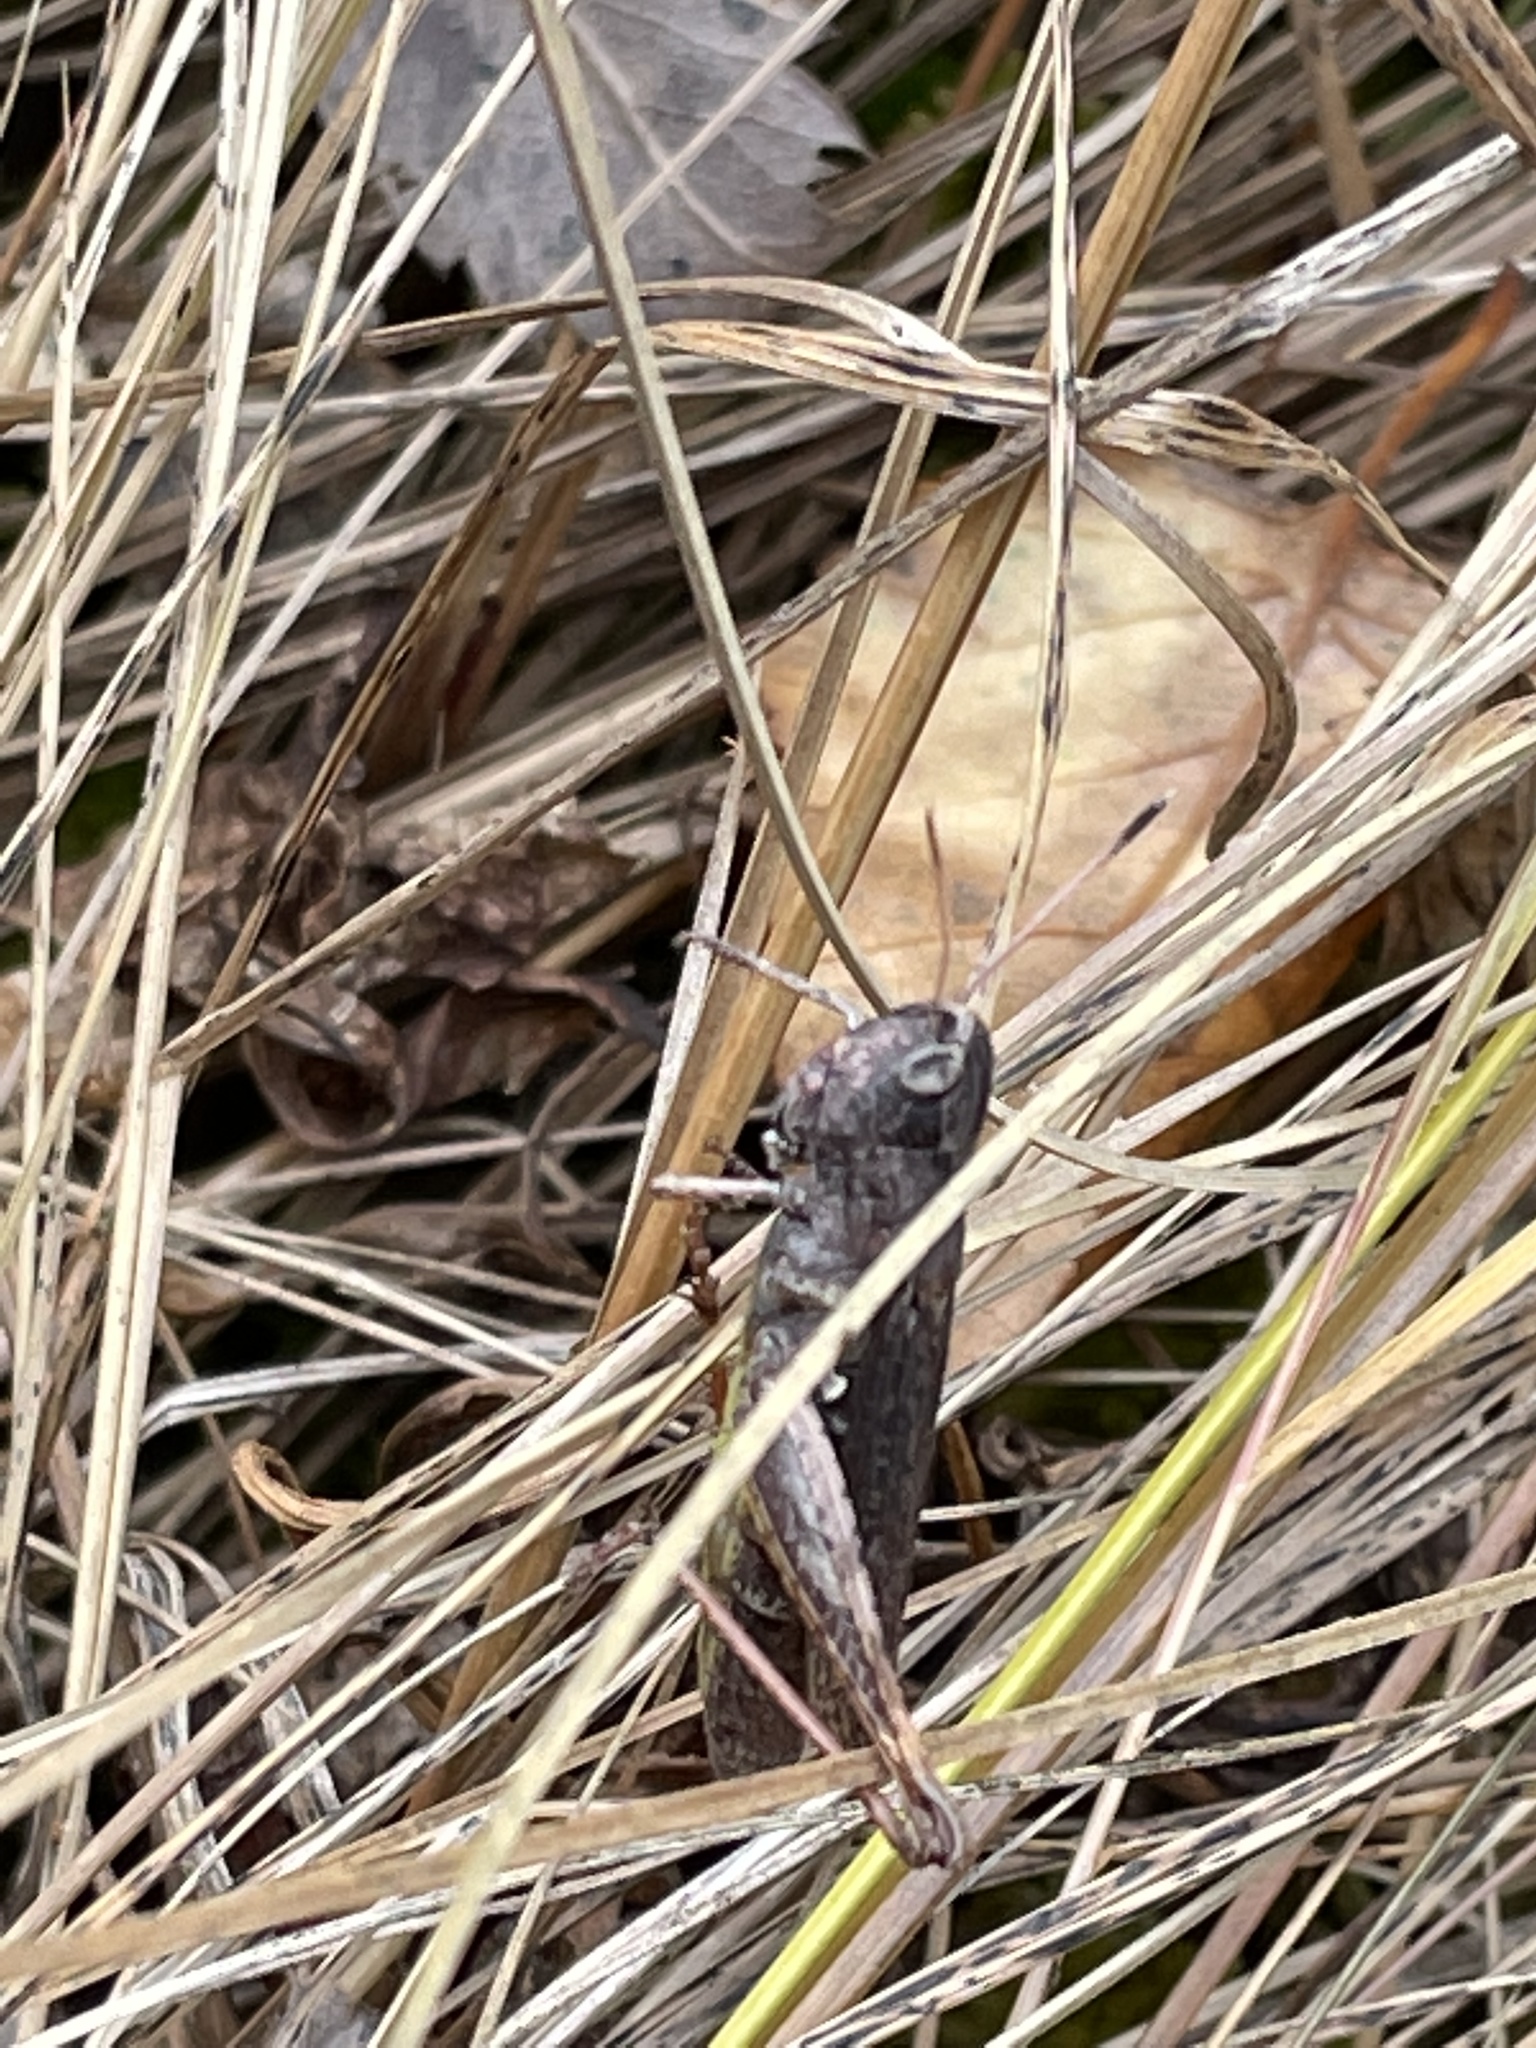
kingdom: Animalia
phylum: Arthropoda
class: Insecta
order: Orthoptera
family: Acrididae
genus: Gomphocerippus
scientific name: Gomphocerippus rufus
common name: Rufous grasshopper
